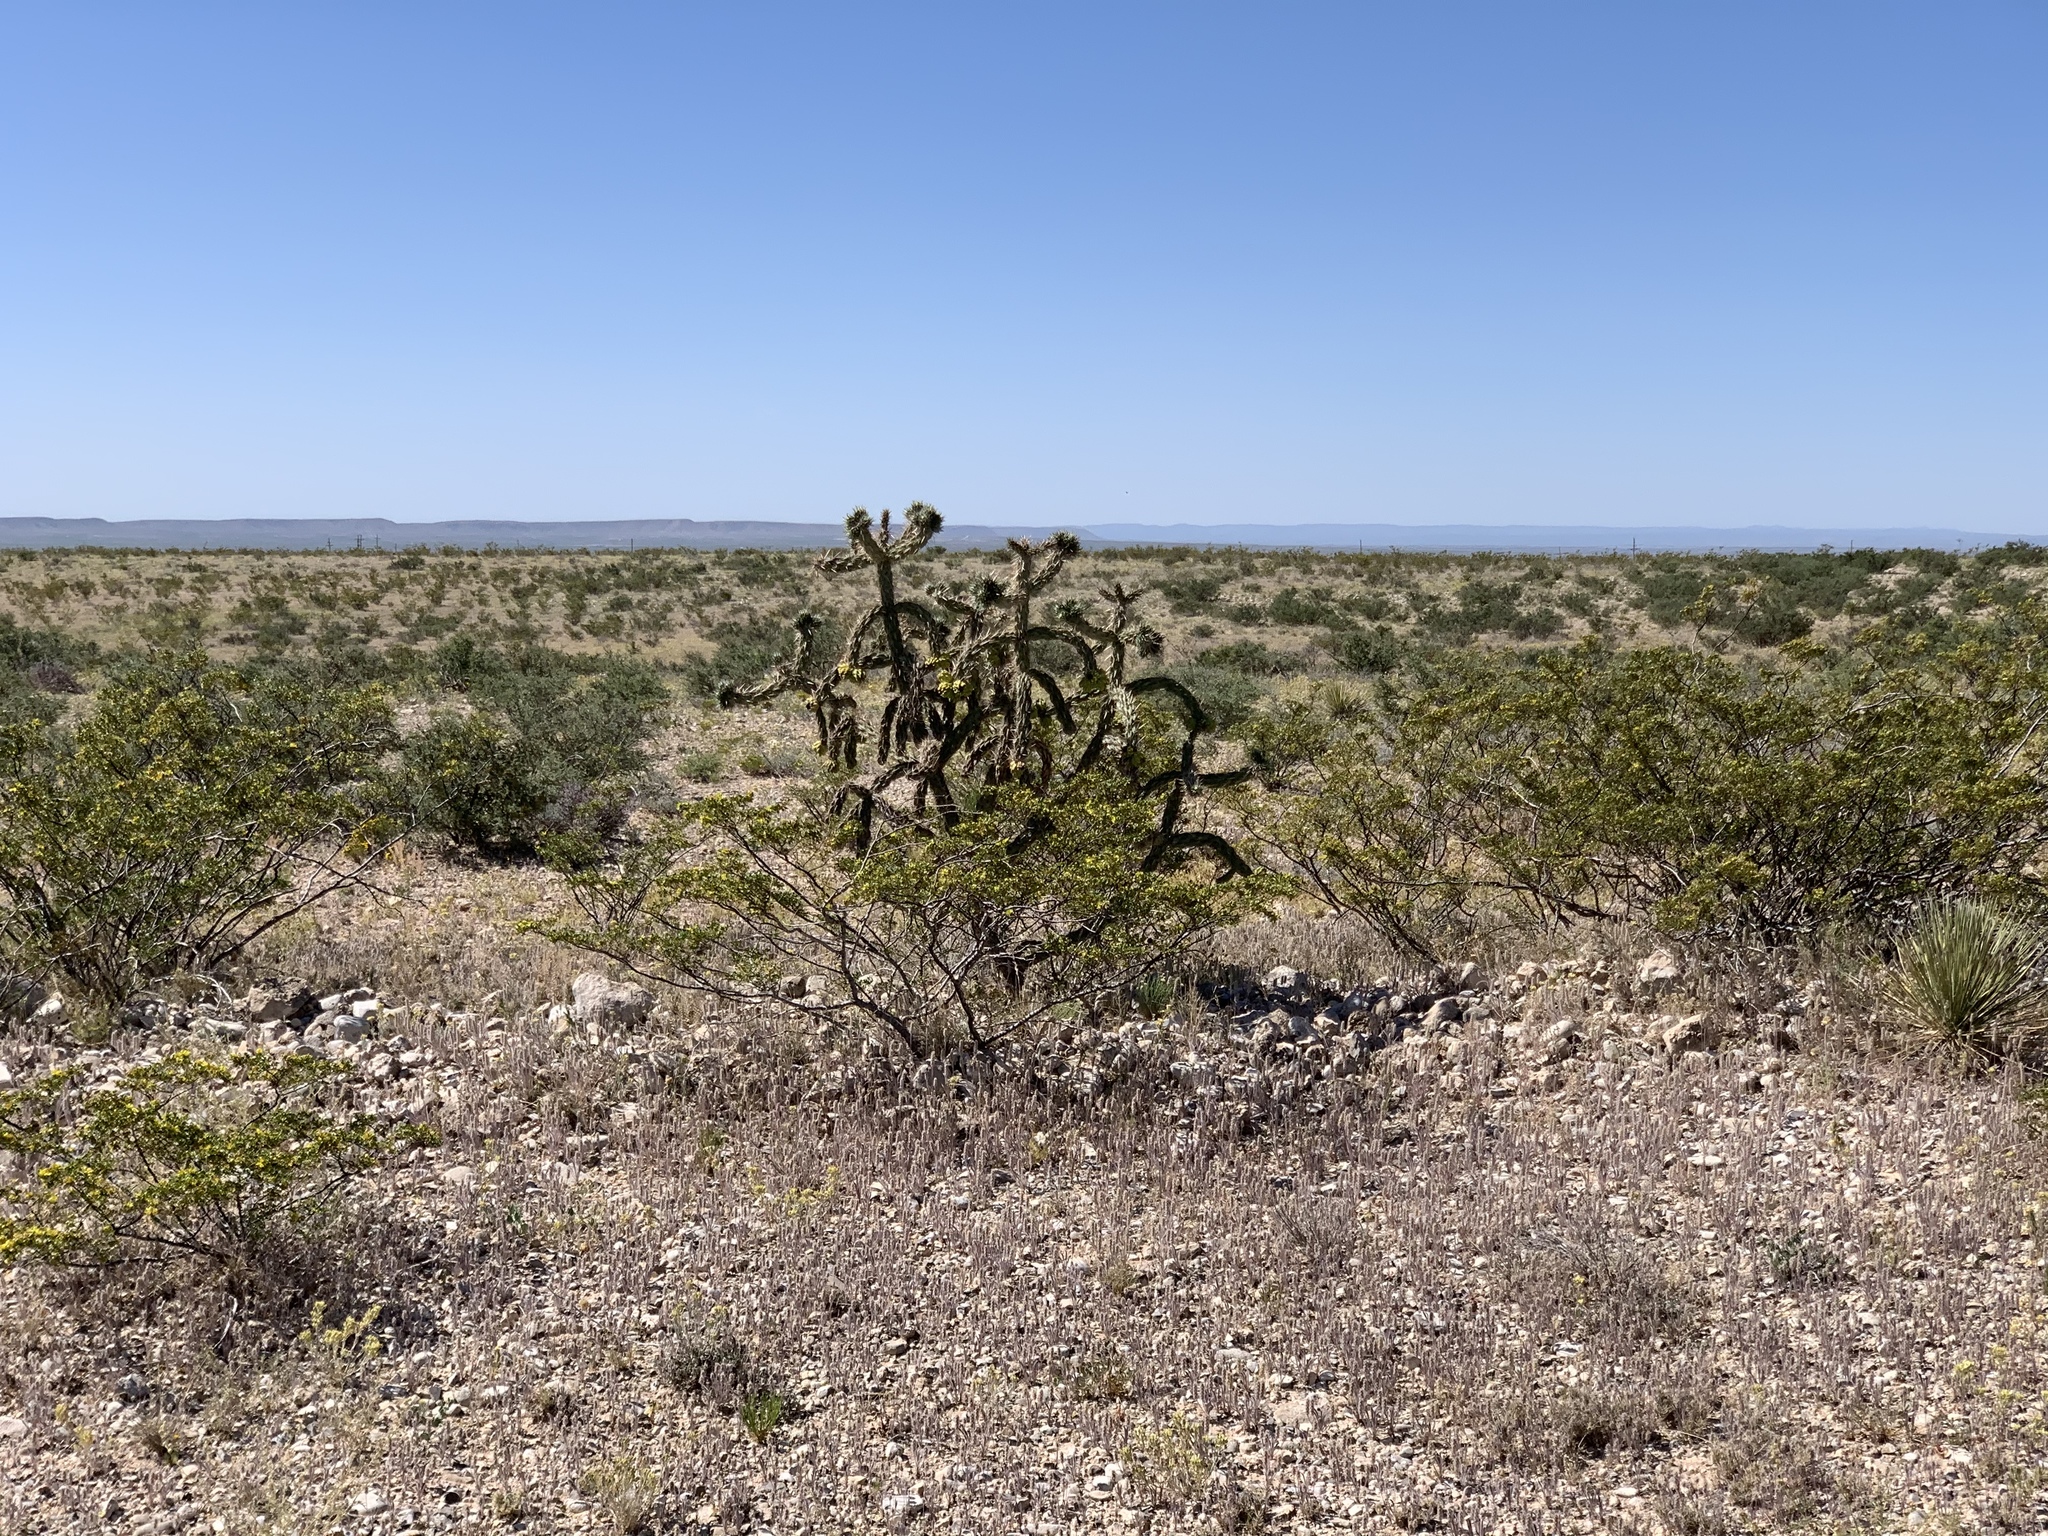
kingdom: Plantae
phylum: Tracheophyta
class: Magnoliopsida
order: Zygophyllales
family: Zygophyllaceae
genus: Larrea
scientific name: Larrea tridentata
